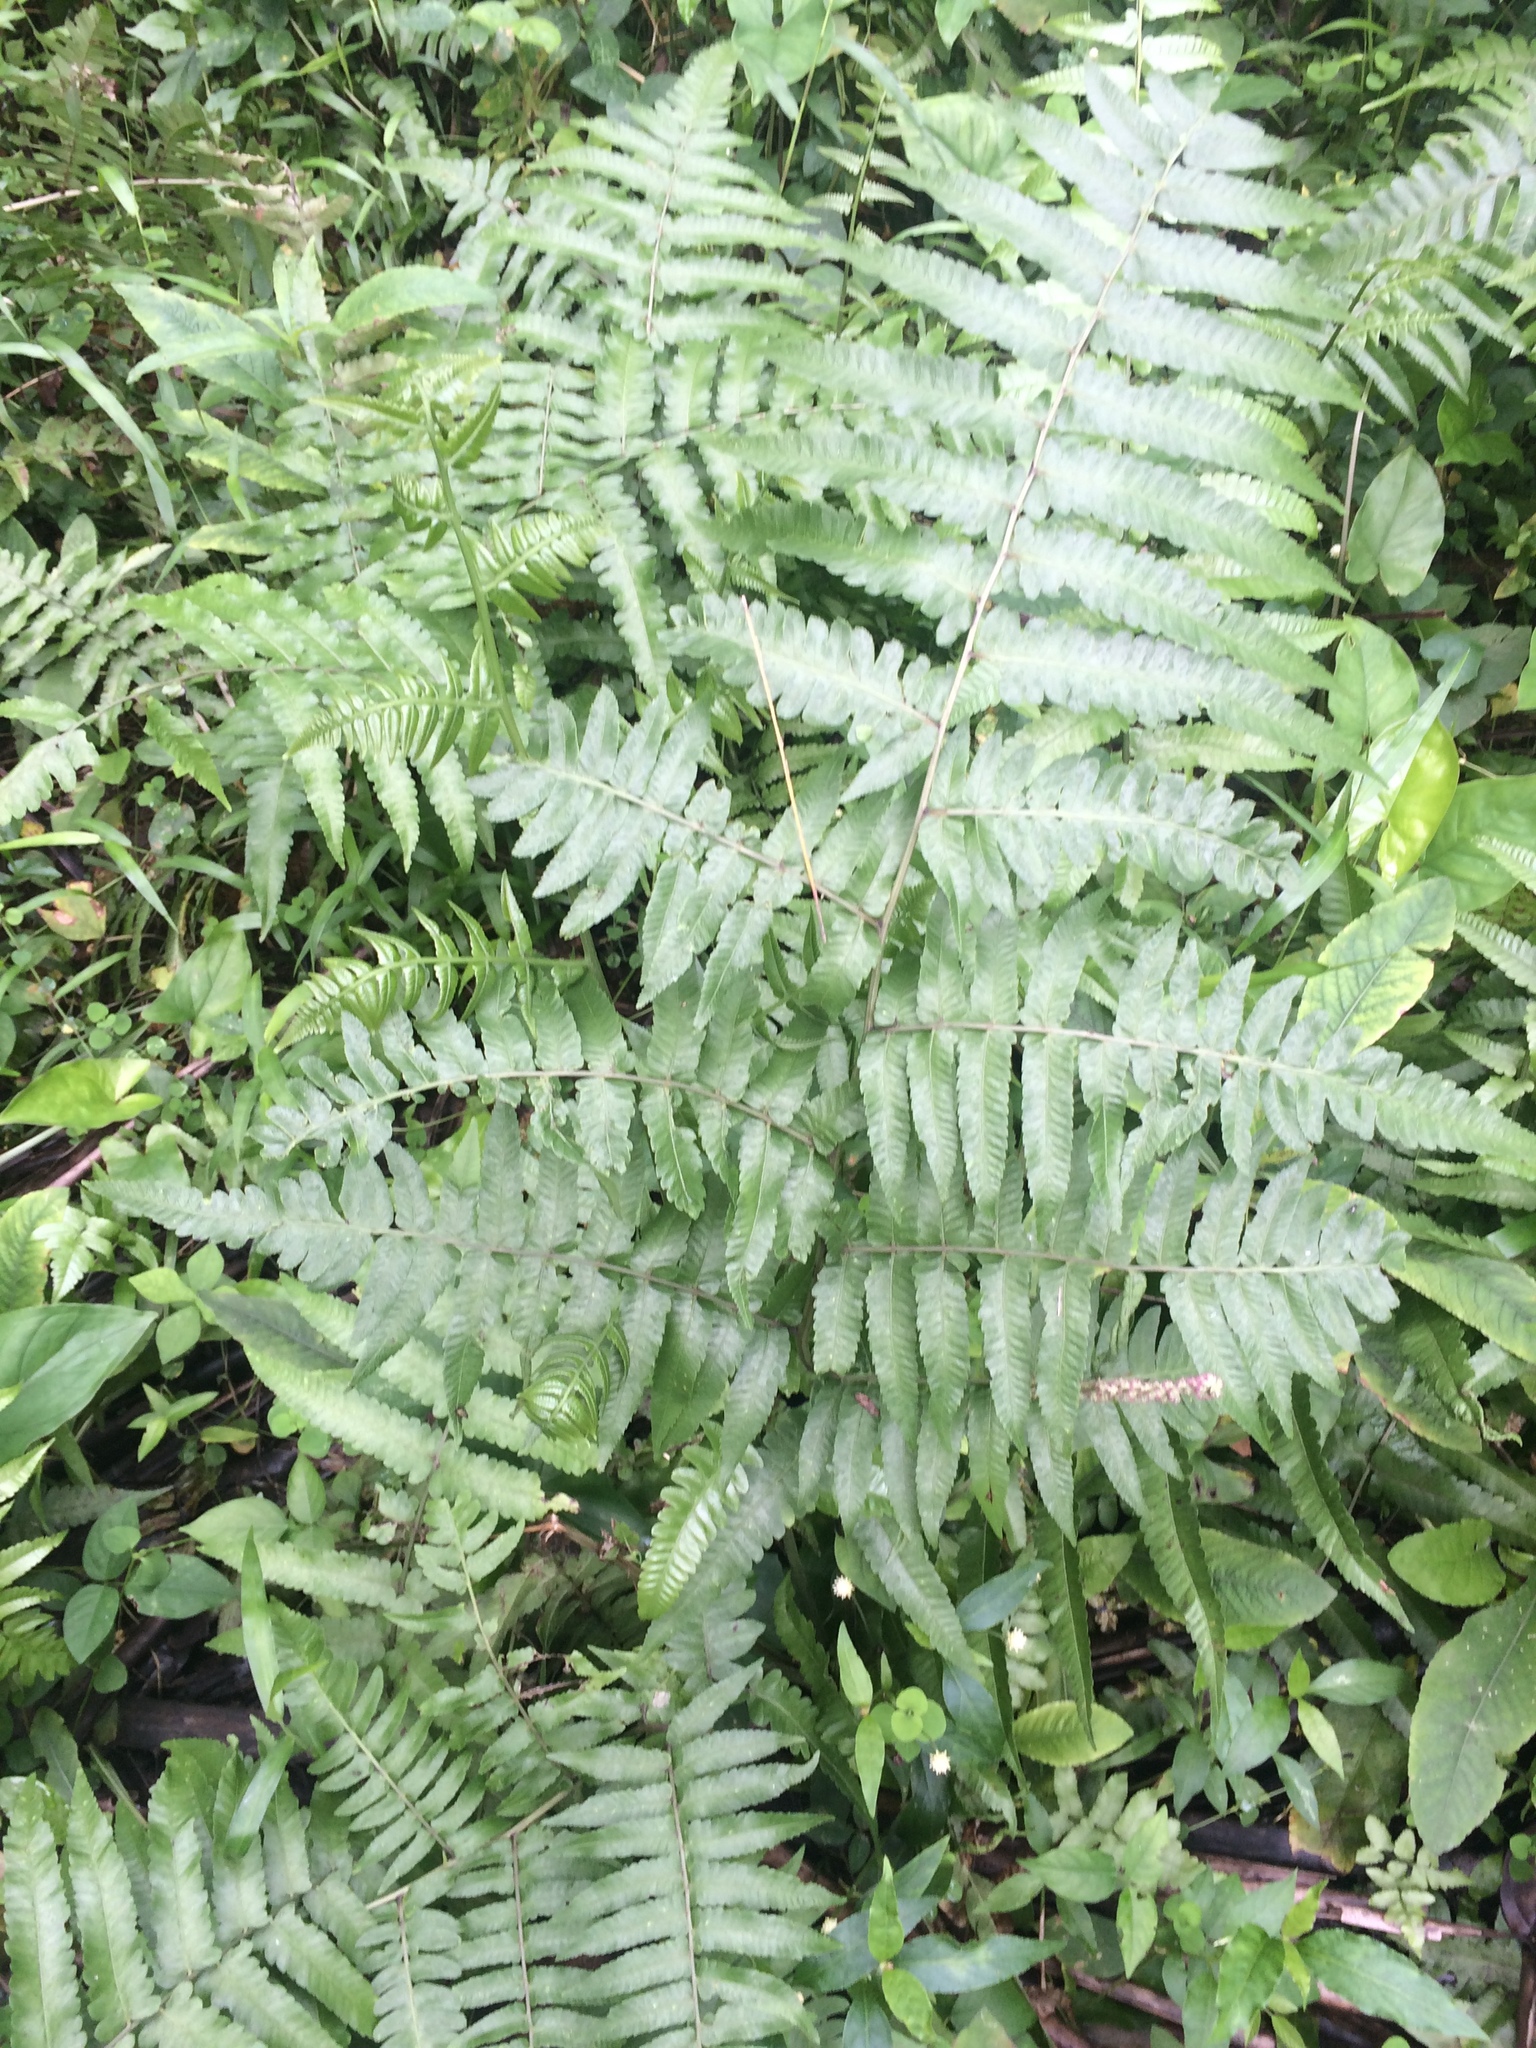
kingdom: Plantae
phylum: Tracheophyta
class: Polypodiopsida
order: Polypodiales
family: Athyriaceae
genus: Diplazium
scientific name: Diplazium esculentum
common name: Vegetable fern
